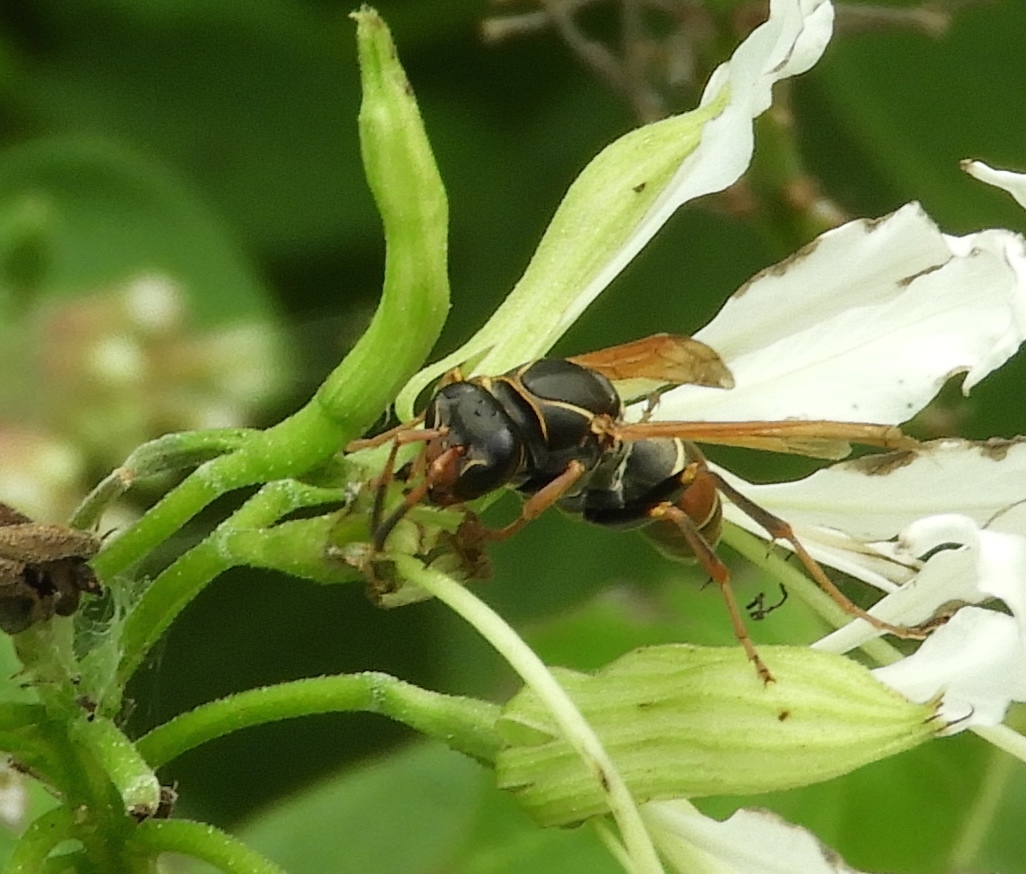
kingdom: Animalia
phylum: Arthropoda
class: Insecta
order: Hymenoptera
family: Eumenidae
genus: Polistes
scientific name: Polistes pacificus
